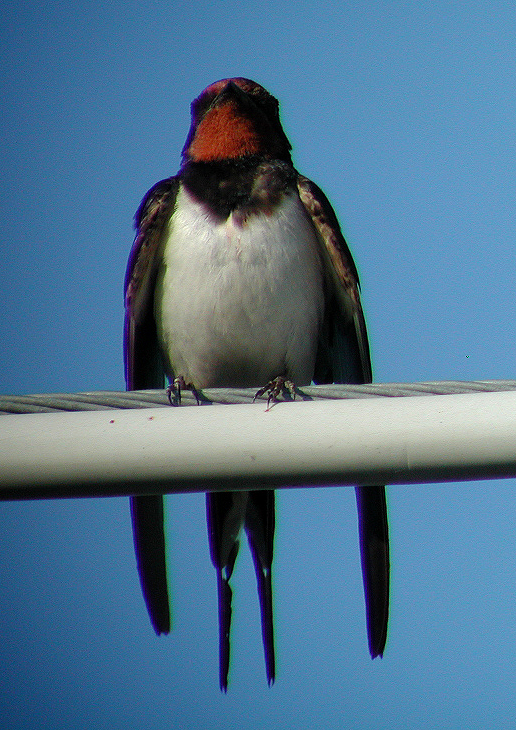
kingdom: Animalia
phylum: Chordata
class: Aves
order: Passeriformes
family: Hirundinidae
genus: Hirundo
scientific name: Hirundo rustica
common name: Barn swallow
